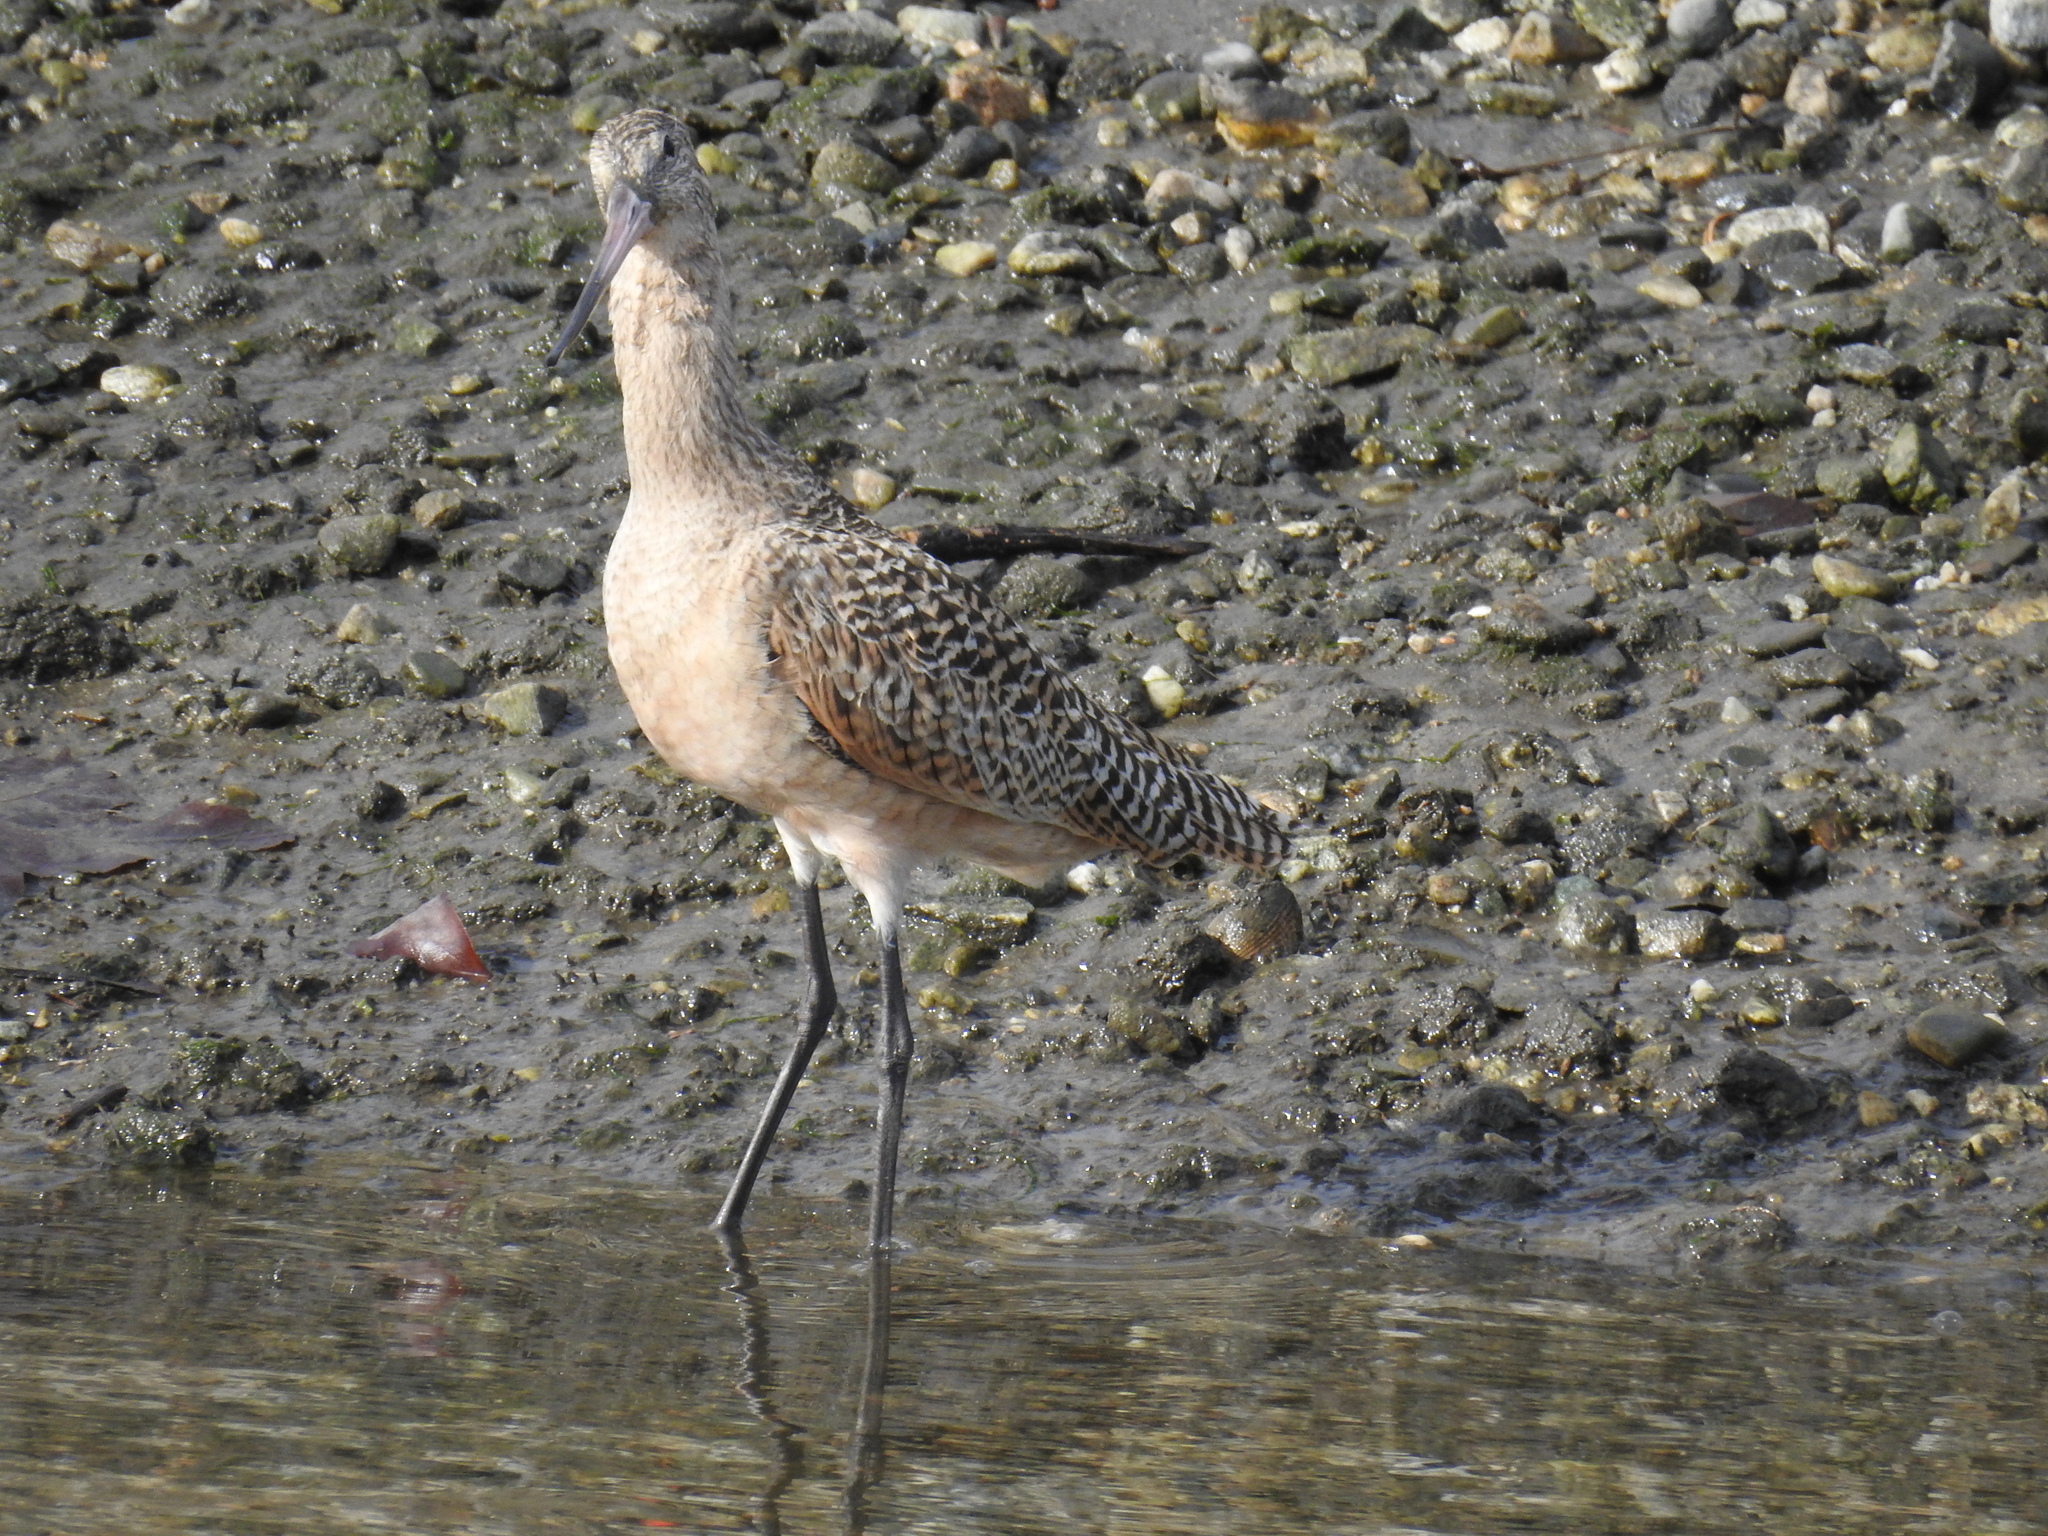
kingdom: Animalia
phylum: Chordata
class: Aves
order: Charadriiformes
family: Scolopacidae
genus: Limosa
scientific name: Limosa fedoa
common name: Marbled godwit
